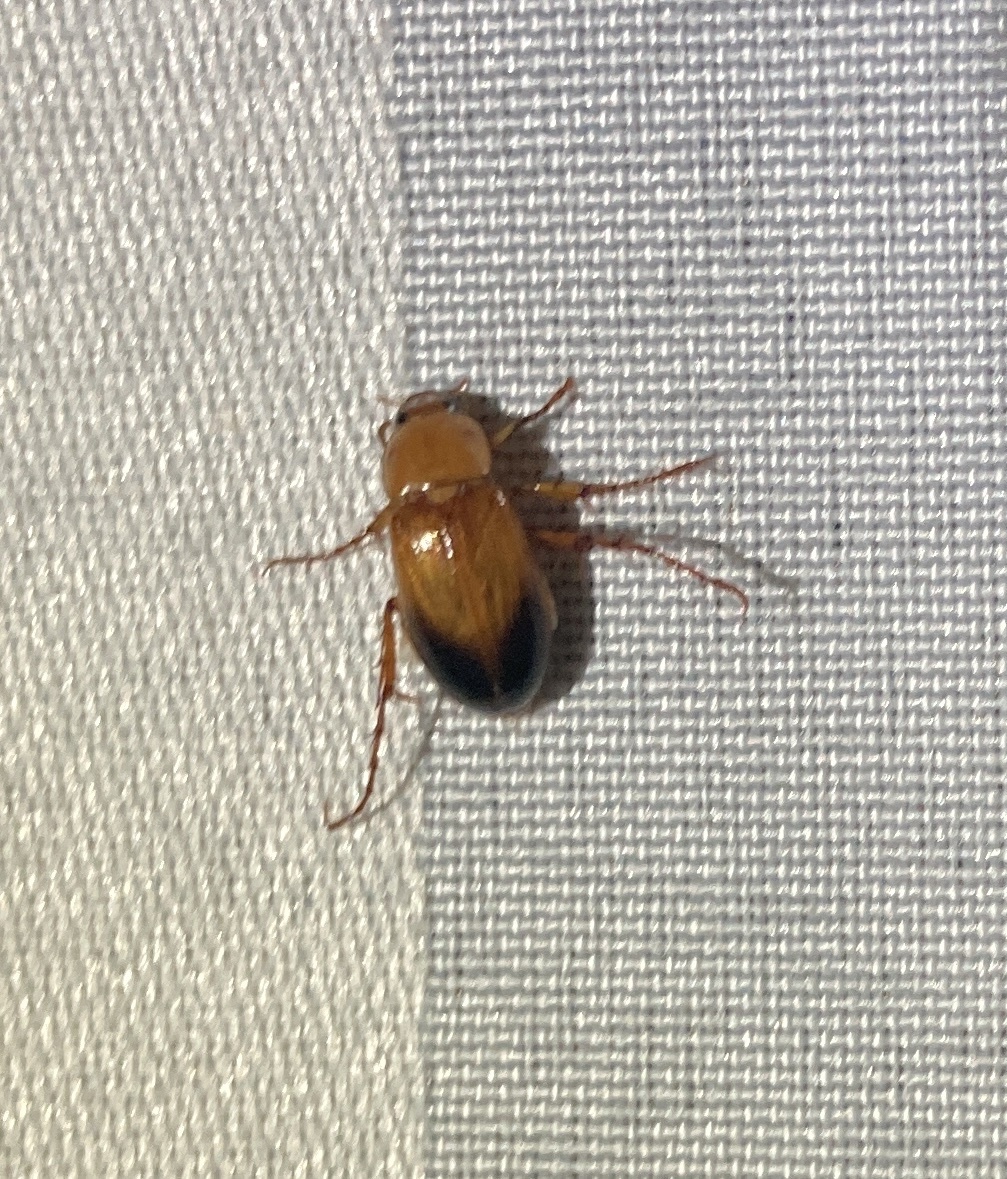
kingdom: Animalia
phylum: Arthropoda
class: Insecta
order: Coleoptera
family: Scarabaeidae
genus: Phyllotocus
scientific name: Phyllotocus macleayi
